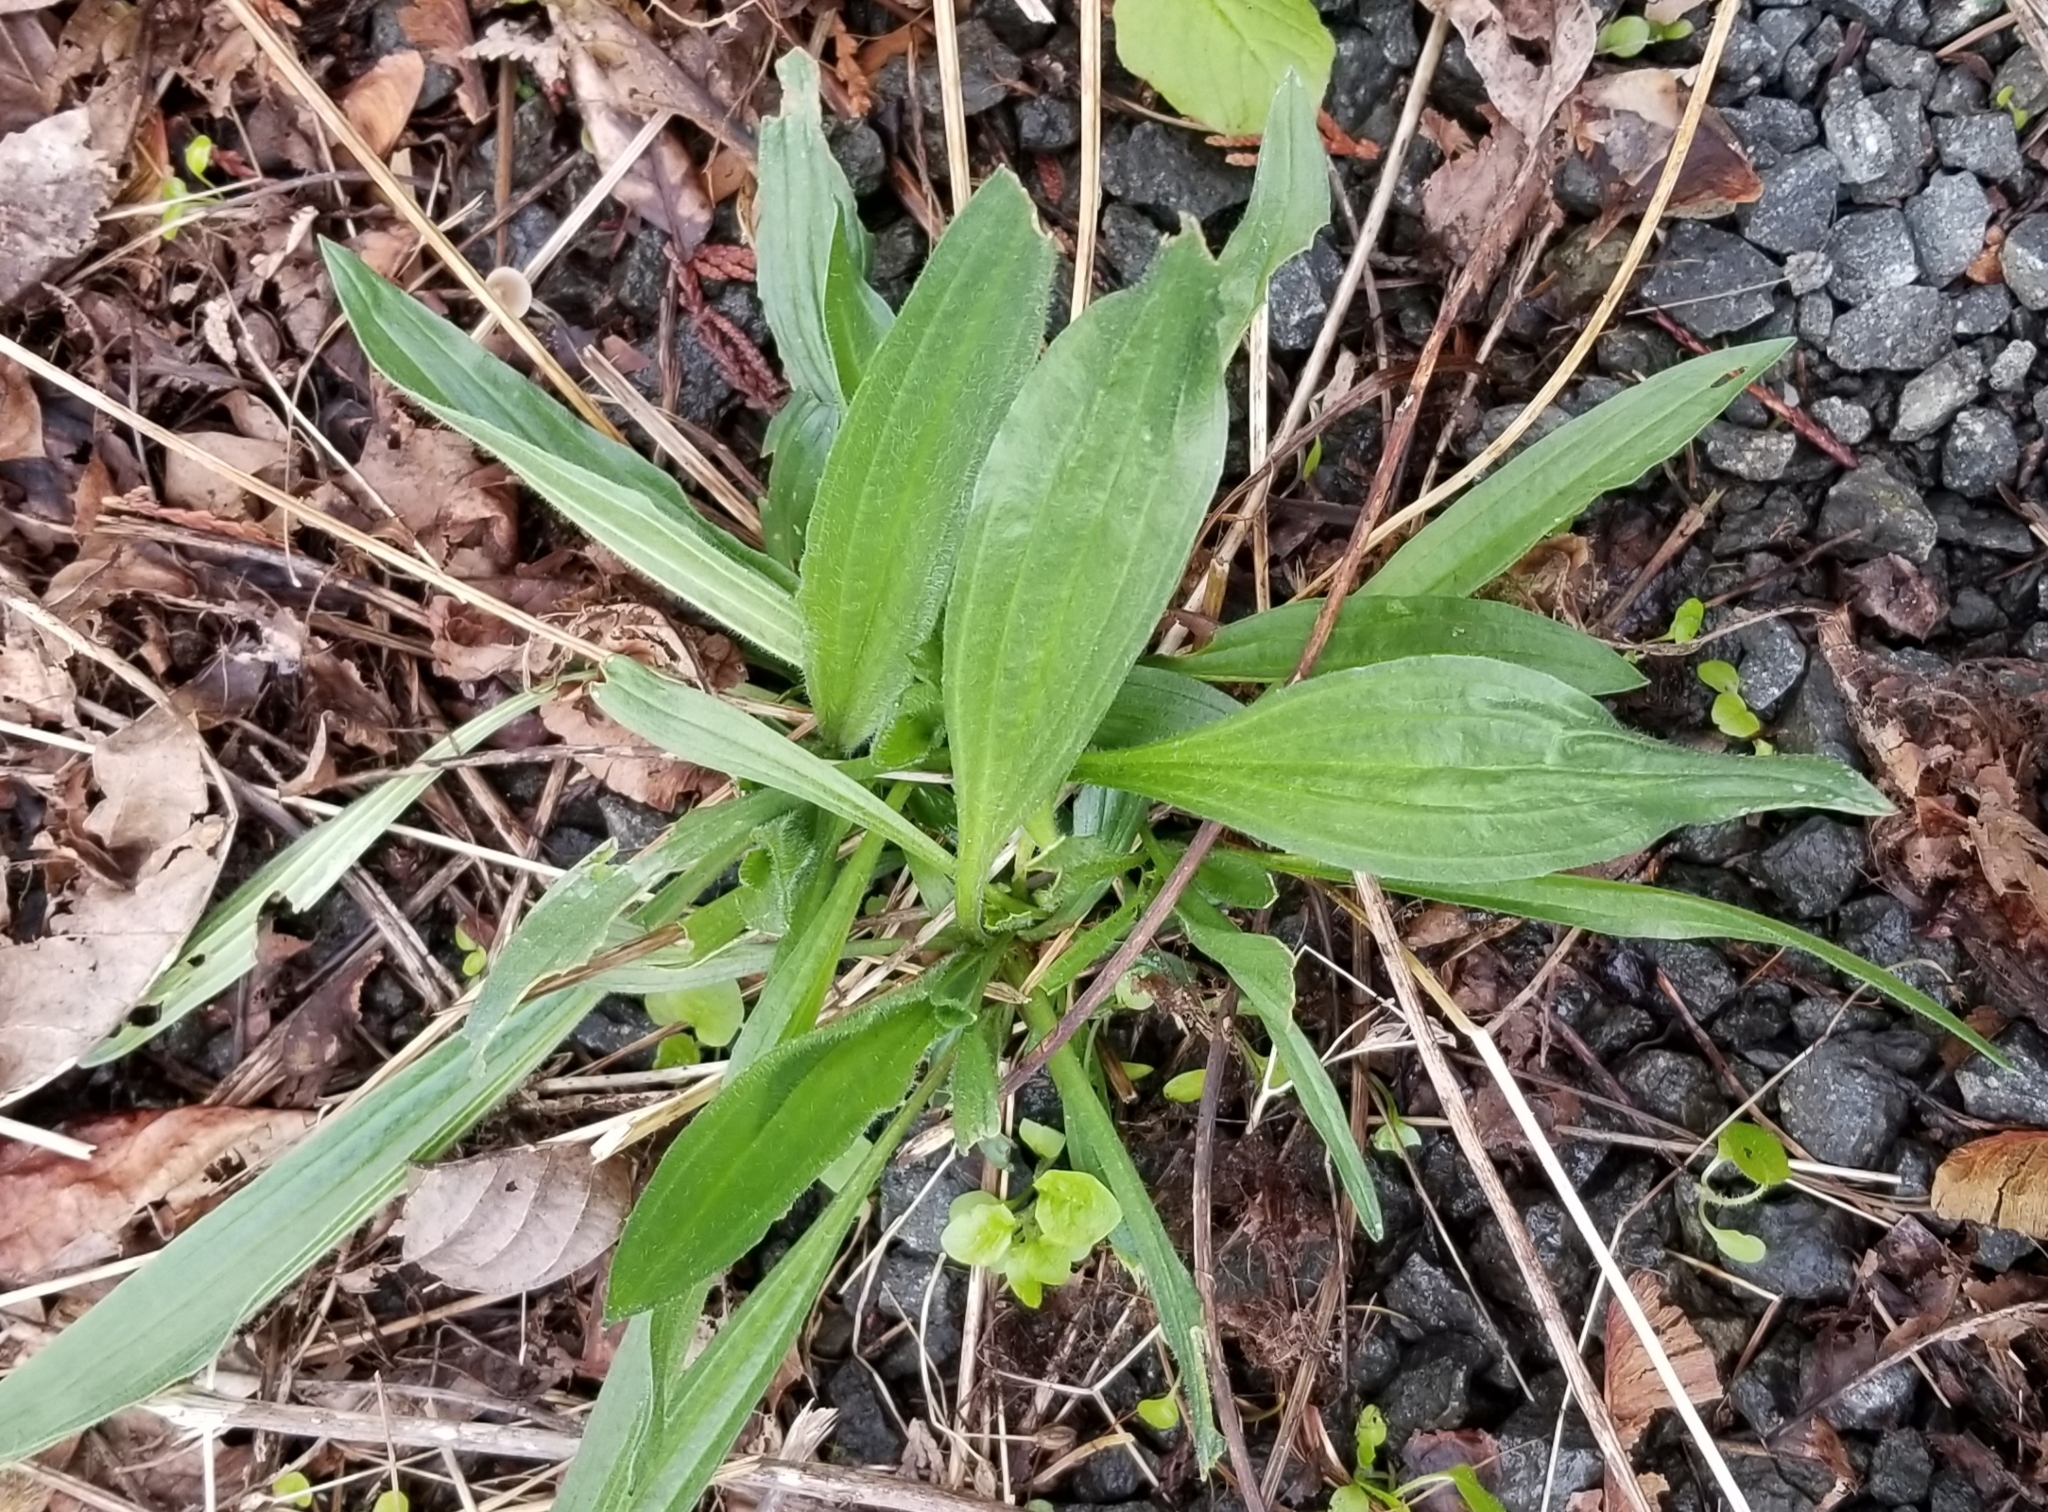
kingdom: Plantae
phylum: Tracheophyta
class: Magnoliopsida
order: Lamiales
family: Plantaginaceae
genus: Plantago
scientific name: Plantago lanceolata
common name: Ribwort plantain
